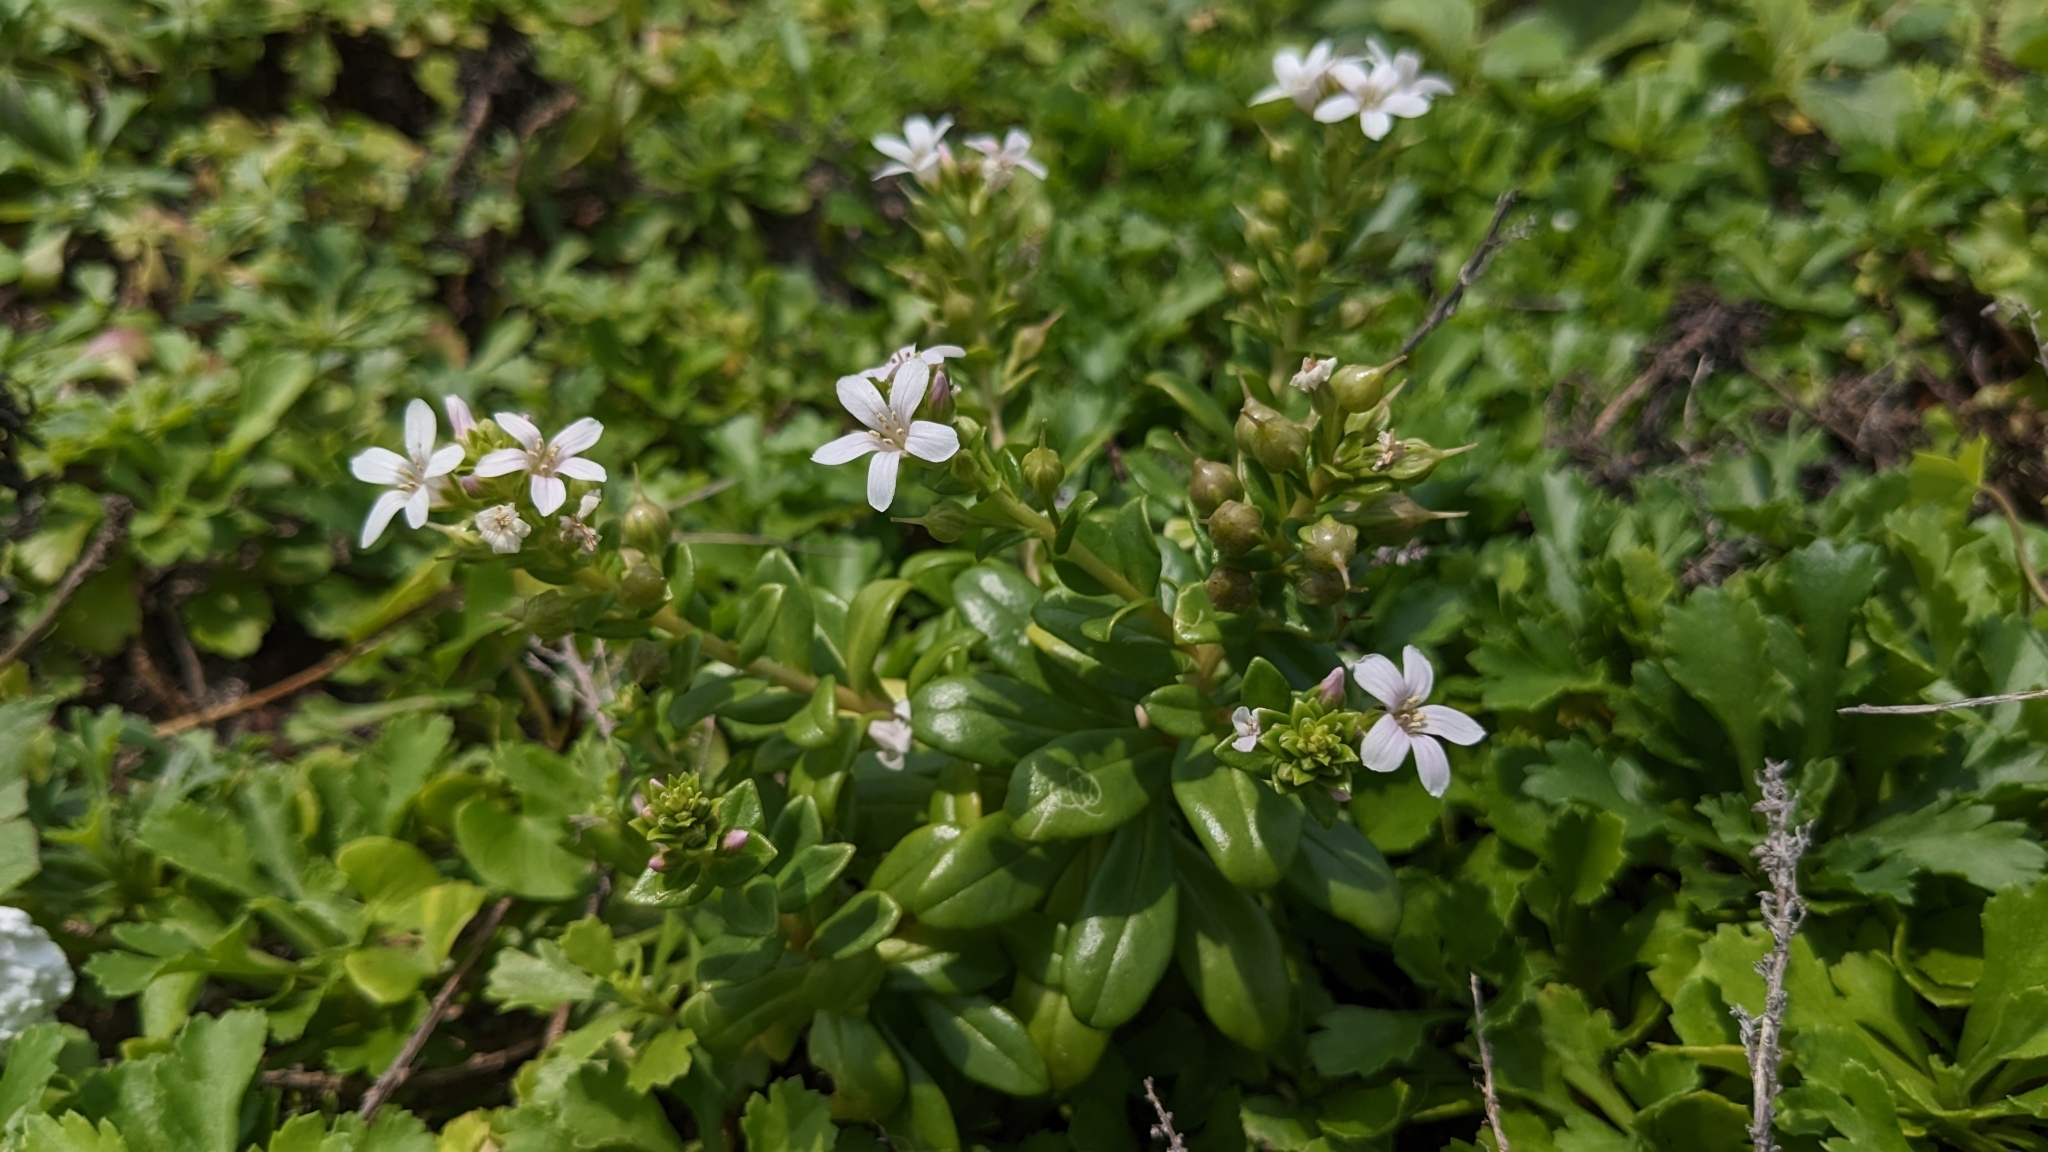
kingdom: Plantae
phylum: Tracheophyta
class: Magnoliopsida
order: Ericales
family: Primulaceae
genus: Lysimachia
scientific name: Lysimachia mauritiana
